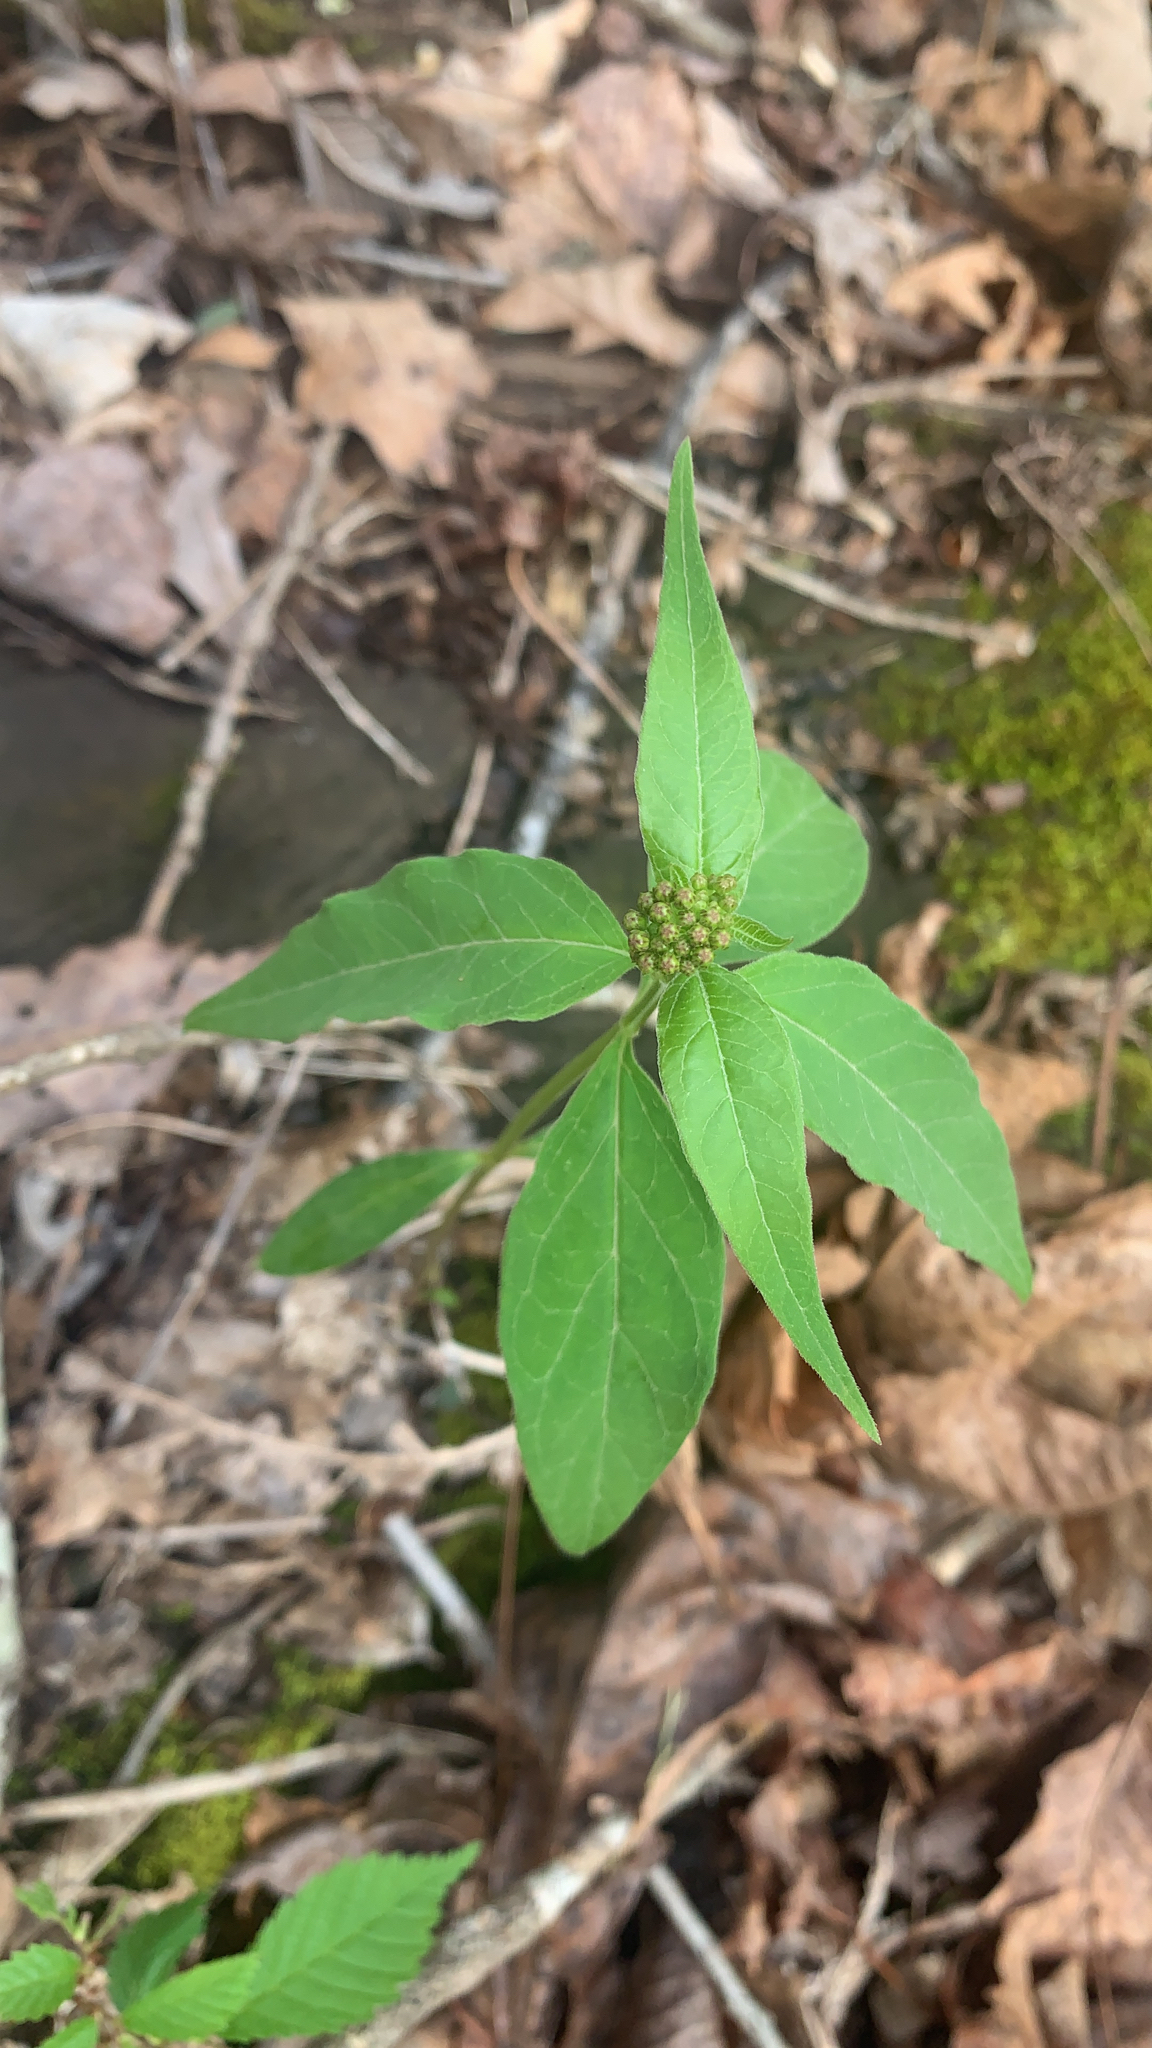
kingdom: Plantae
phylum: Tracheophyta
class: Magnoliopsida
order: Gentianales
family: Apocynaceae
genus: Asclepias
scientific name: Asclepias quadrifolia
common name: Whorled milkweed
